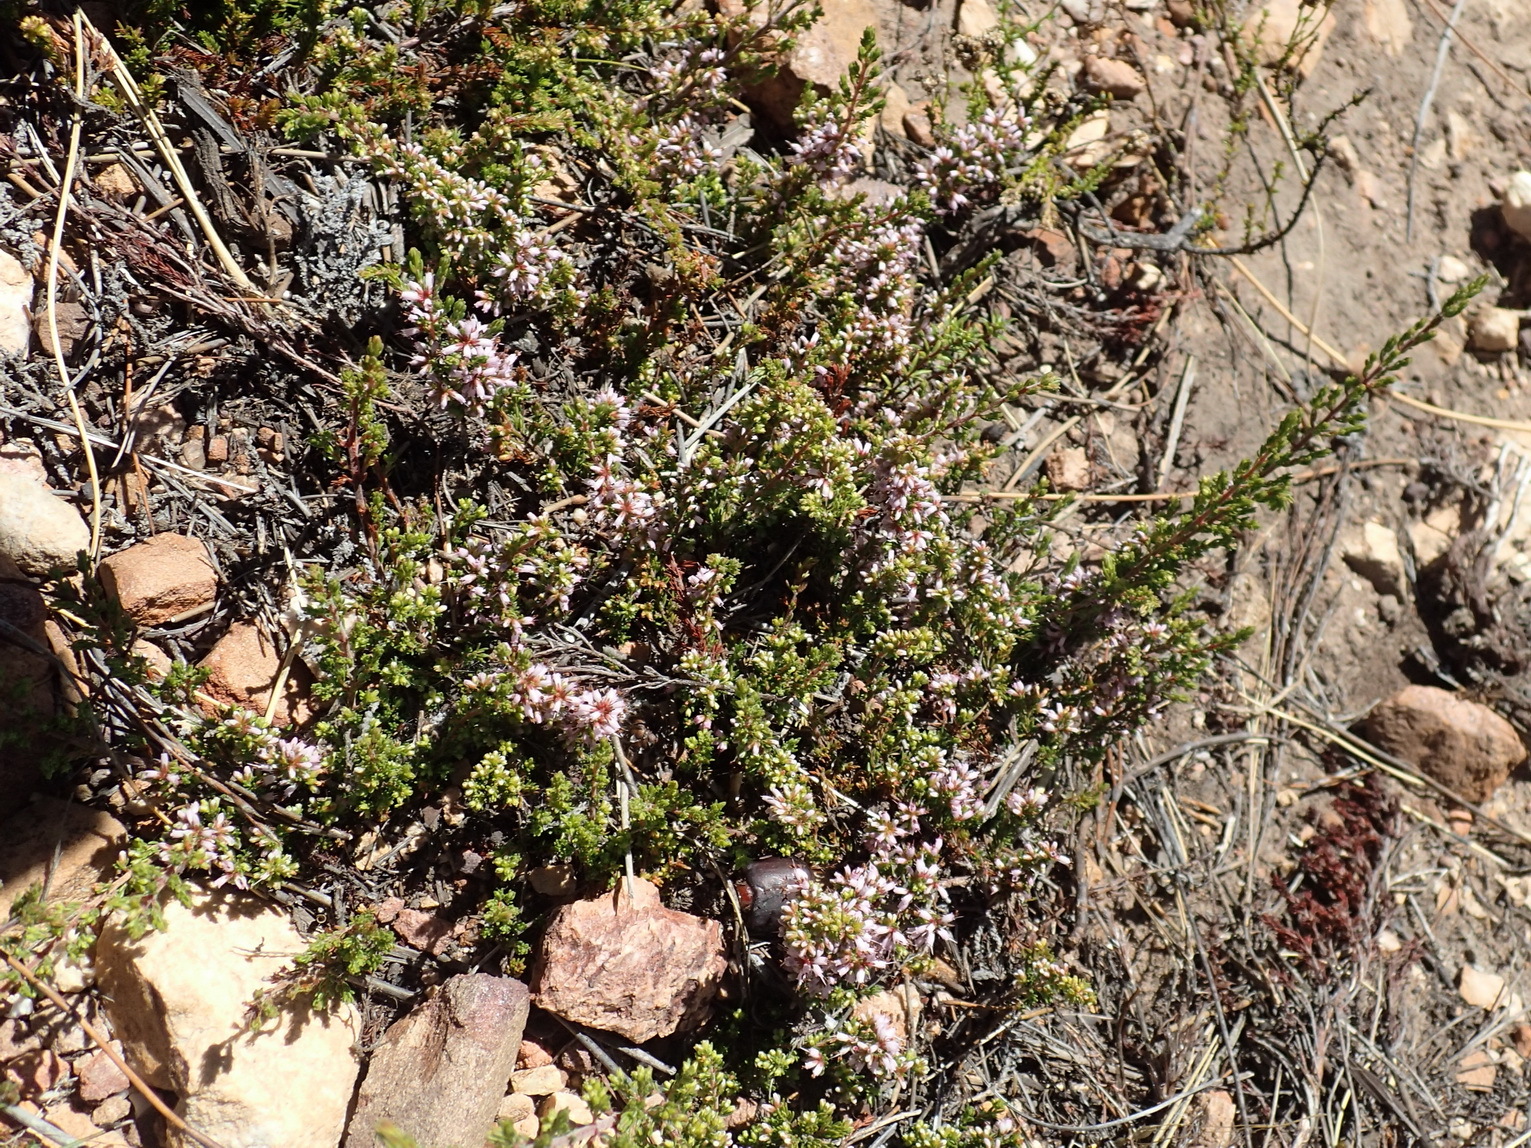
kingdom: Plantae
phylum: Tracheophyta
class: Magnoliopsida
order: Ericales
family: Ericaceae
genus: Erica
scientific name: Erica uberiflora
